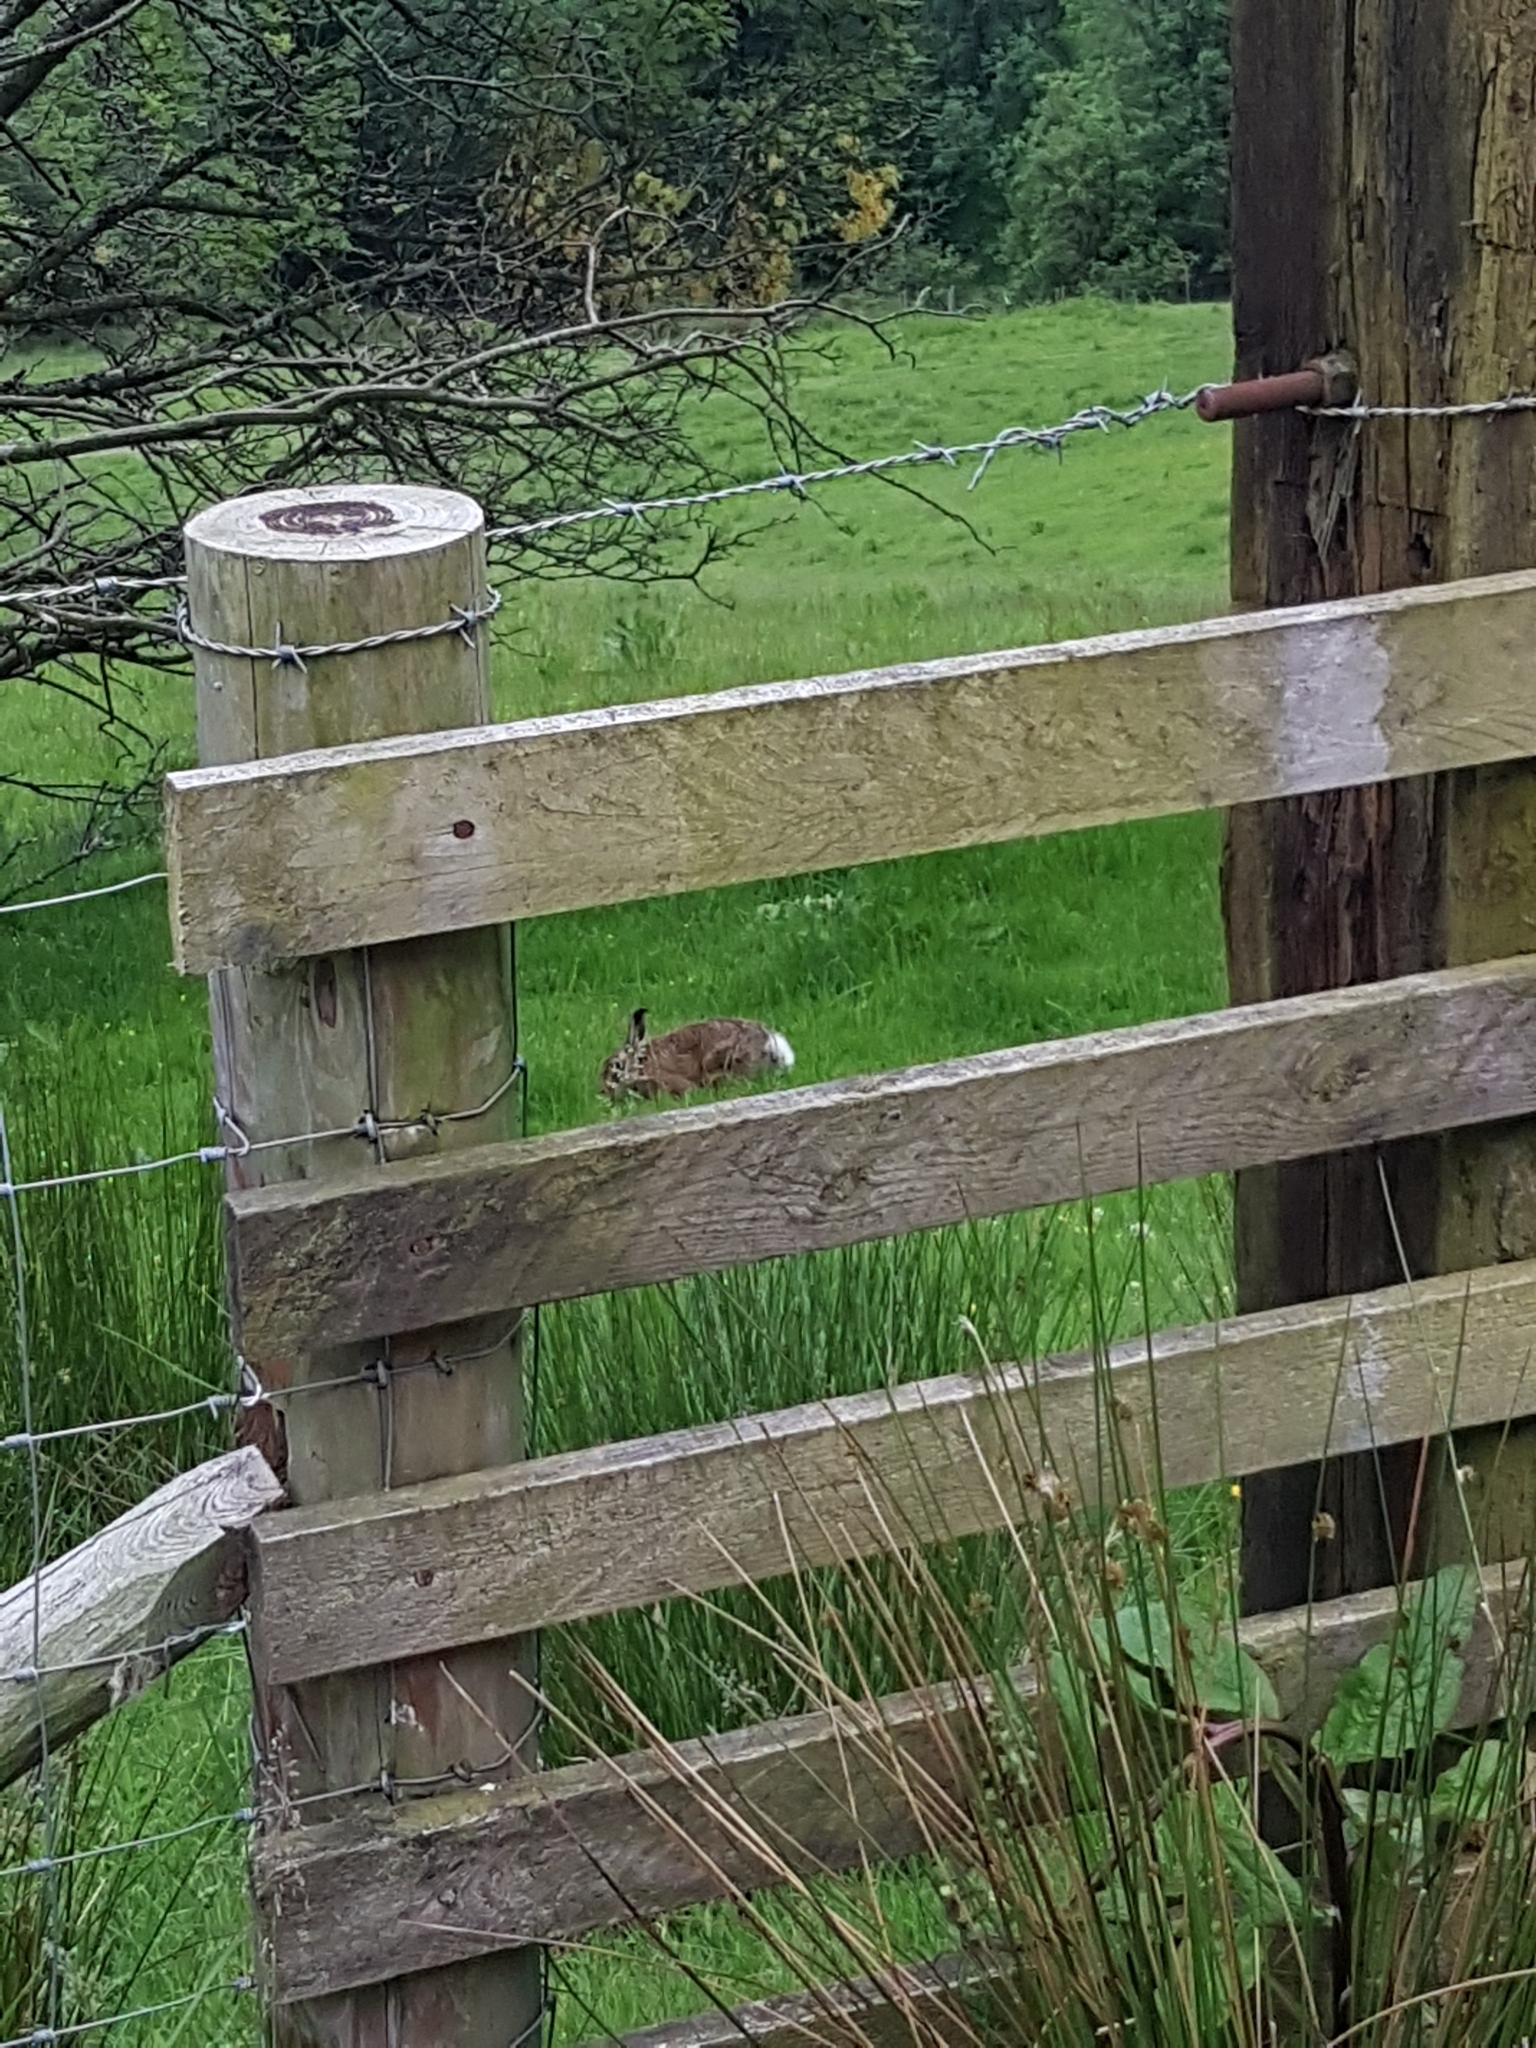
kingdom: Animalia
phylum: Chordata
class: Mammalia
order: Lagomorpha
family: Leporidae
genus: Lepus
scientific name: Lepus europaeus
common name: European hare
